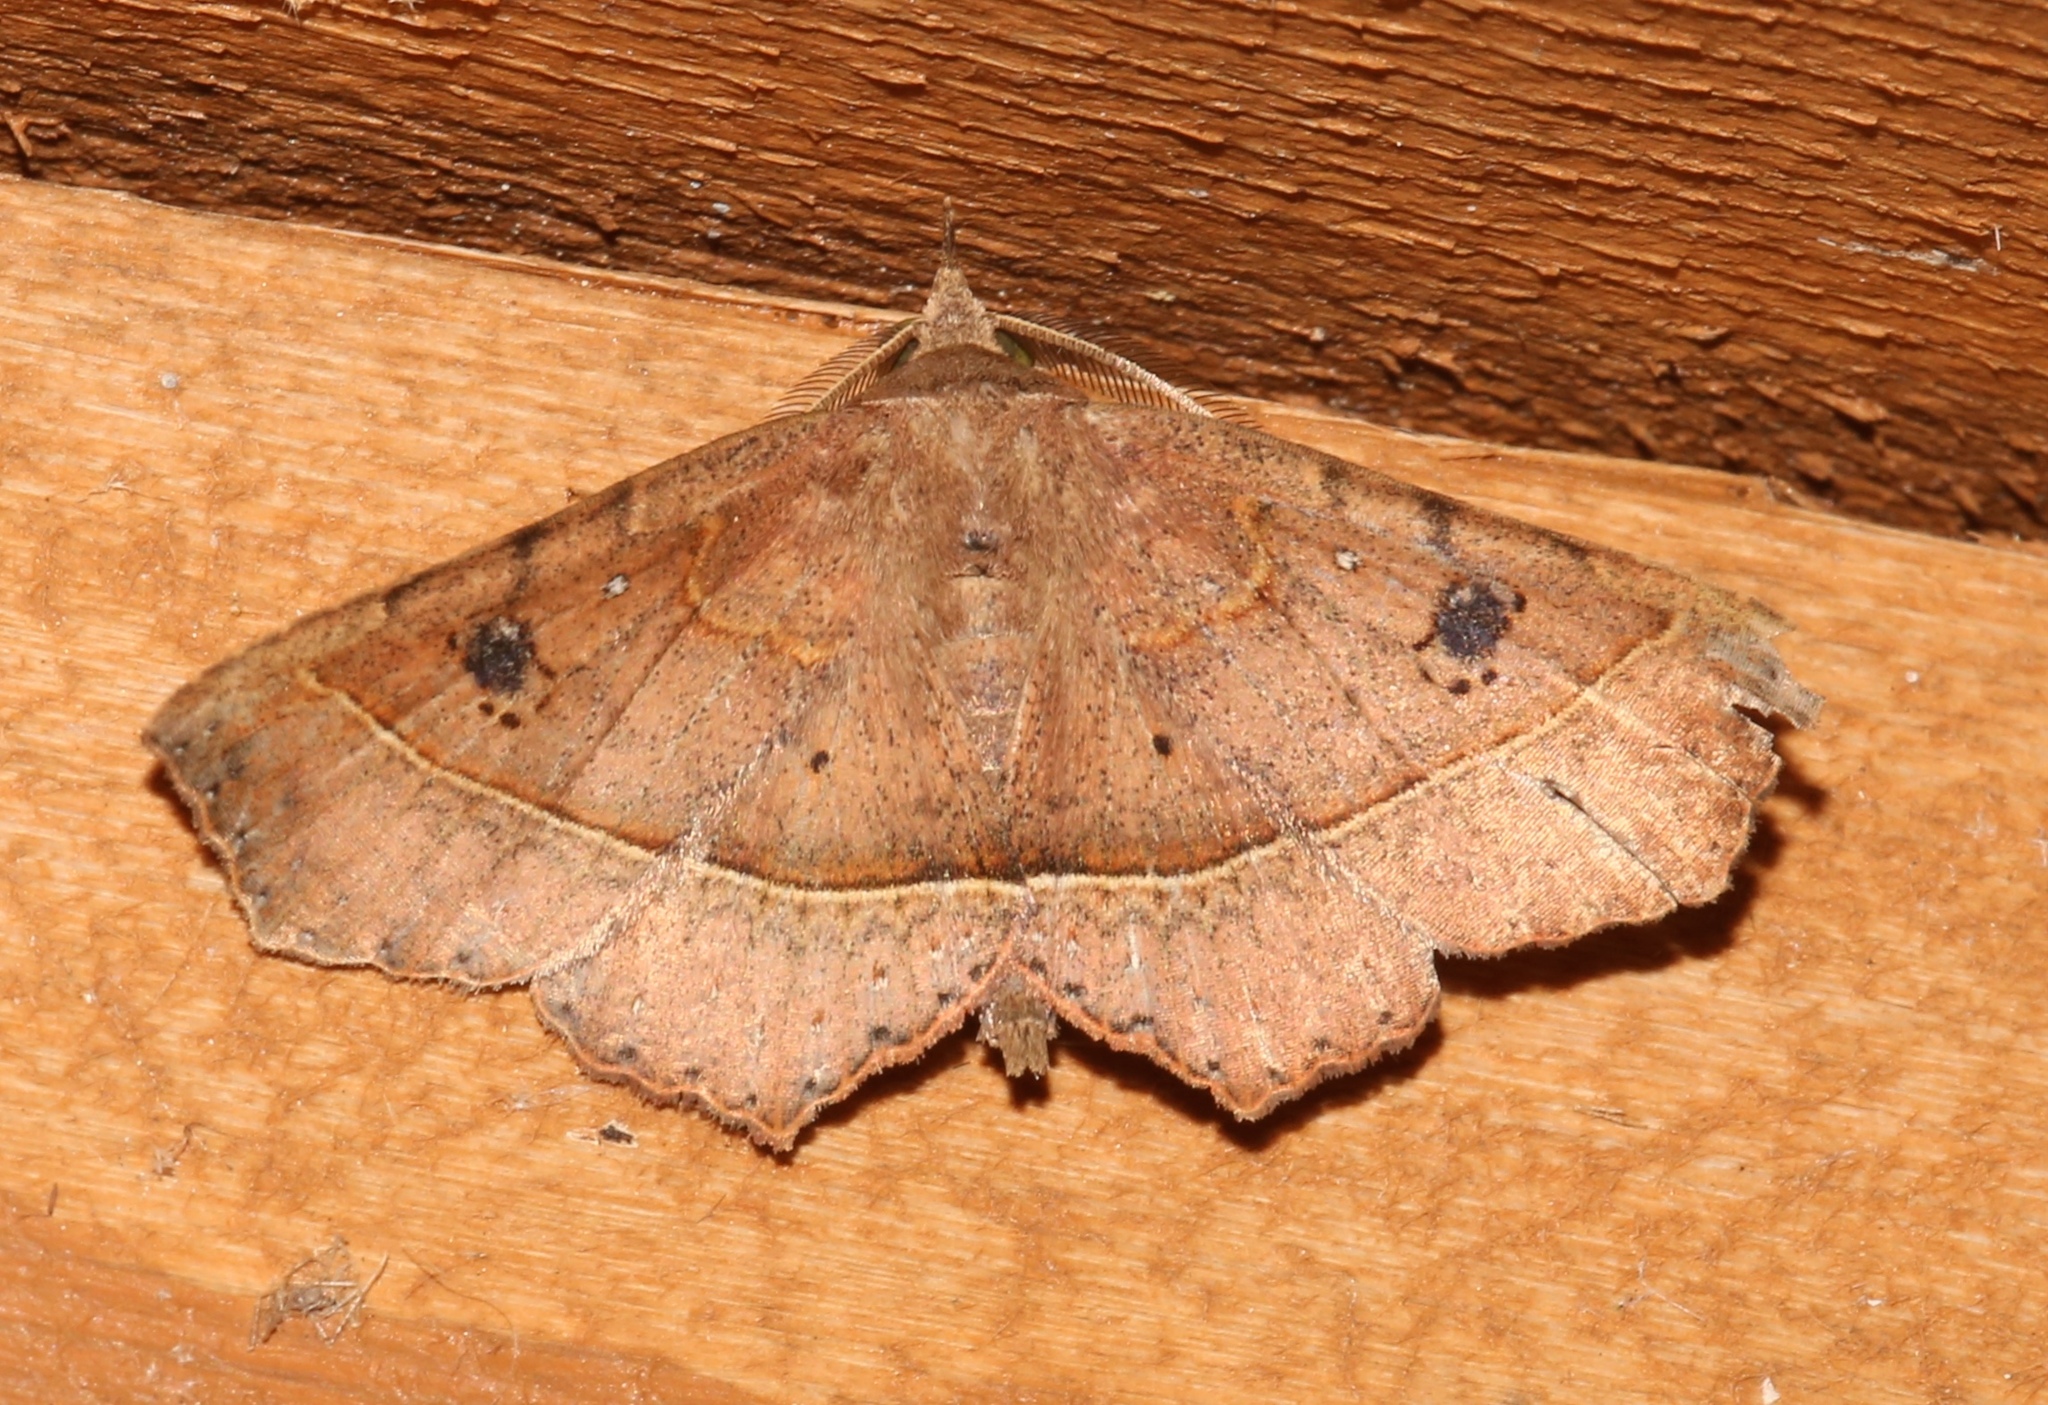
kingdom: Animalia
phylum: Arthropoda
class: Insecta
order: Lepidoptera
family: Erebidae
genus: Ephyrodes
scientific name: Ephyrodes cacata
